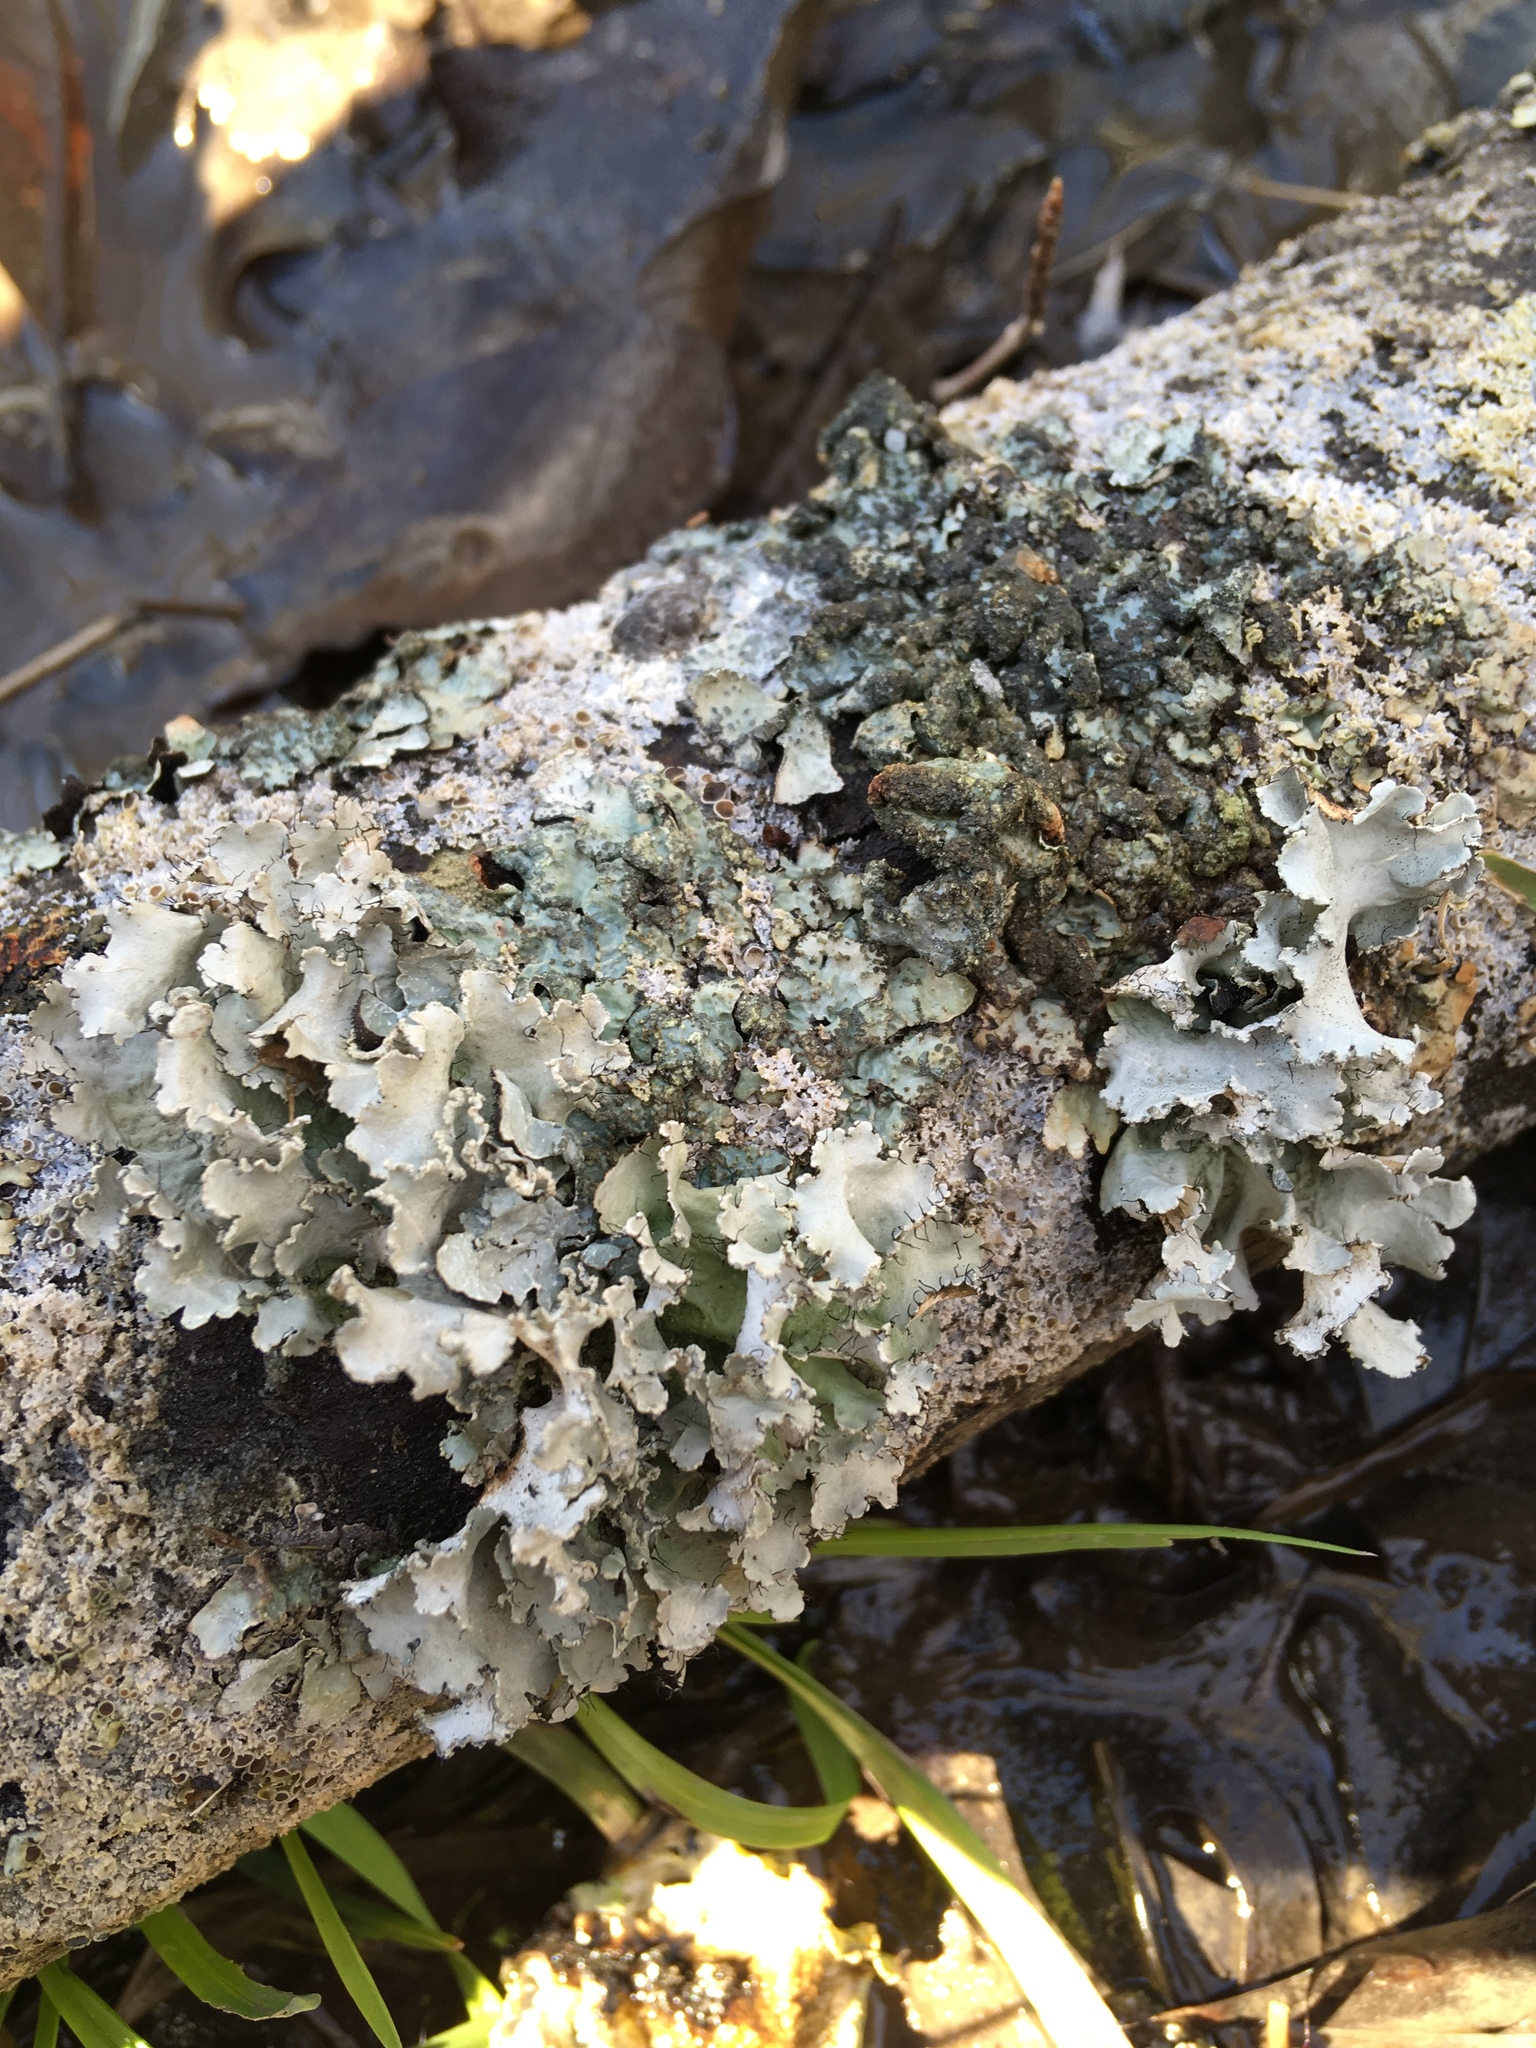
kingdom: Fungi
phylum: Ascomycota
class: Lecanoromycetes
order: Lecanorales
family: Parmeliaceae
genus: Parmotrema
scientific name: Parmotrema hypotropum
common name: Powdered ruffle lichen
